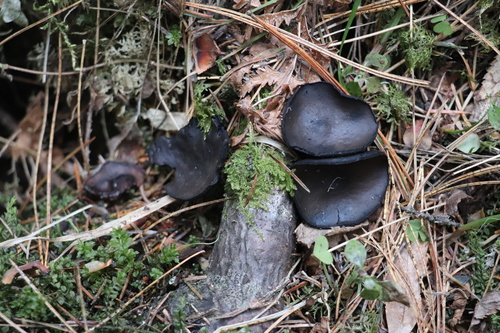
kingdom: Fungi
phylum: Ascomycota
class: Pezizomycetes
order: Pezizales
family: Sarcosomataceae
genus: Pseudoplectania
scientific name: Pseudoplectania melaena
